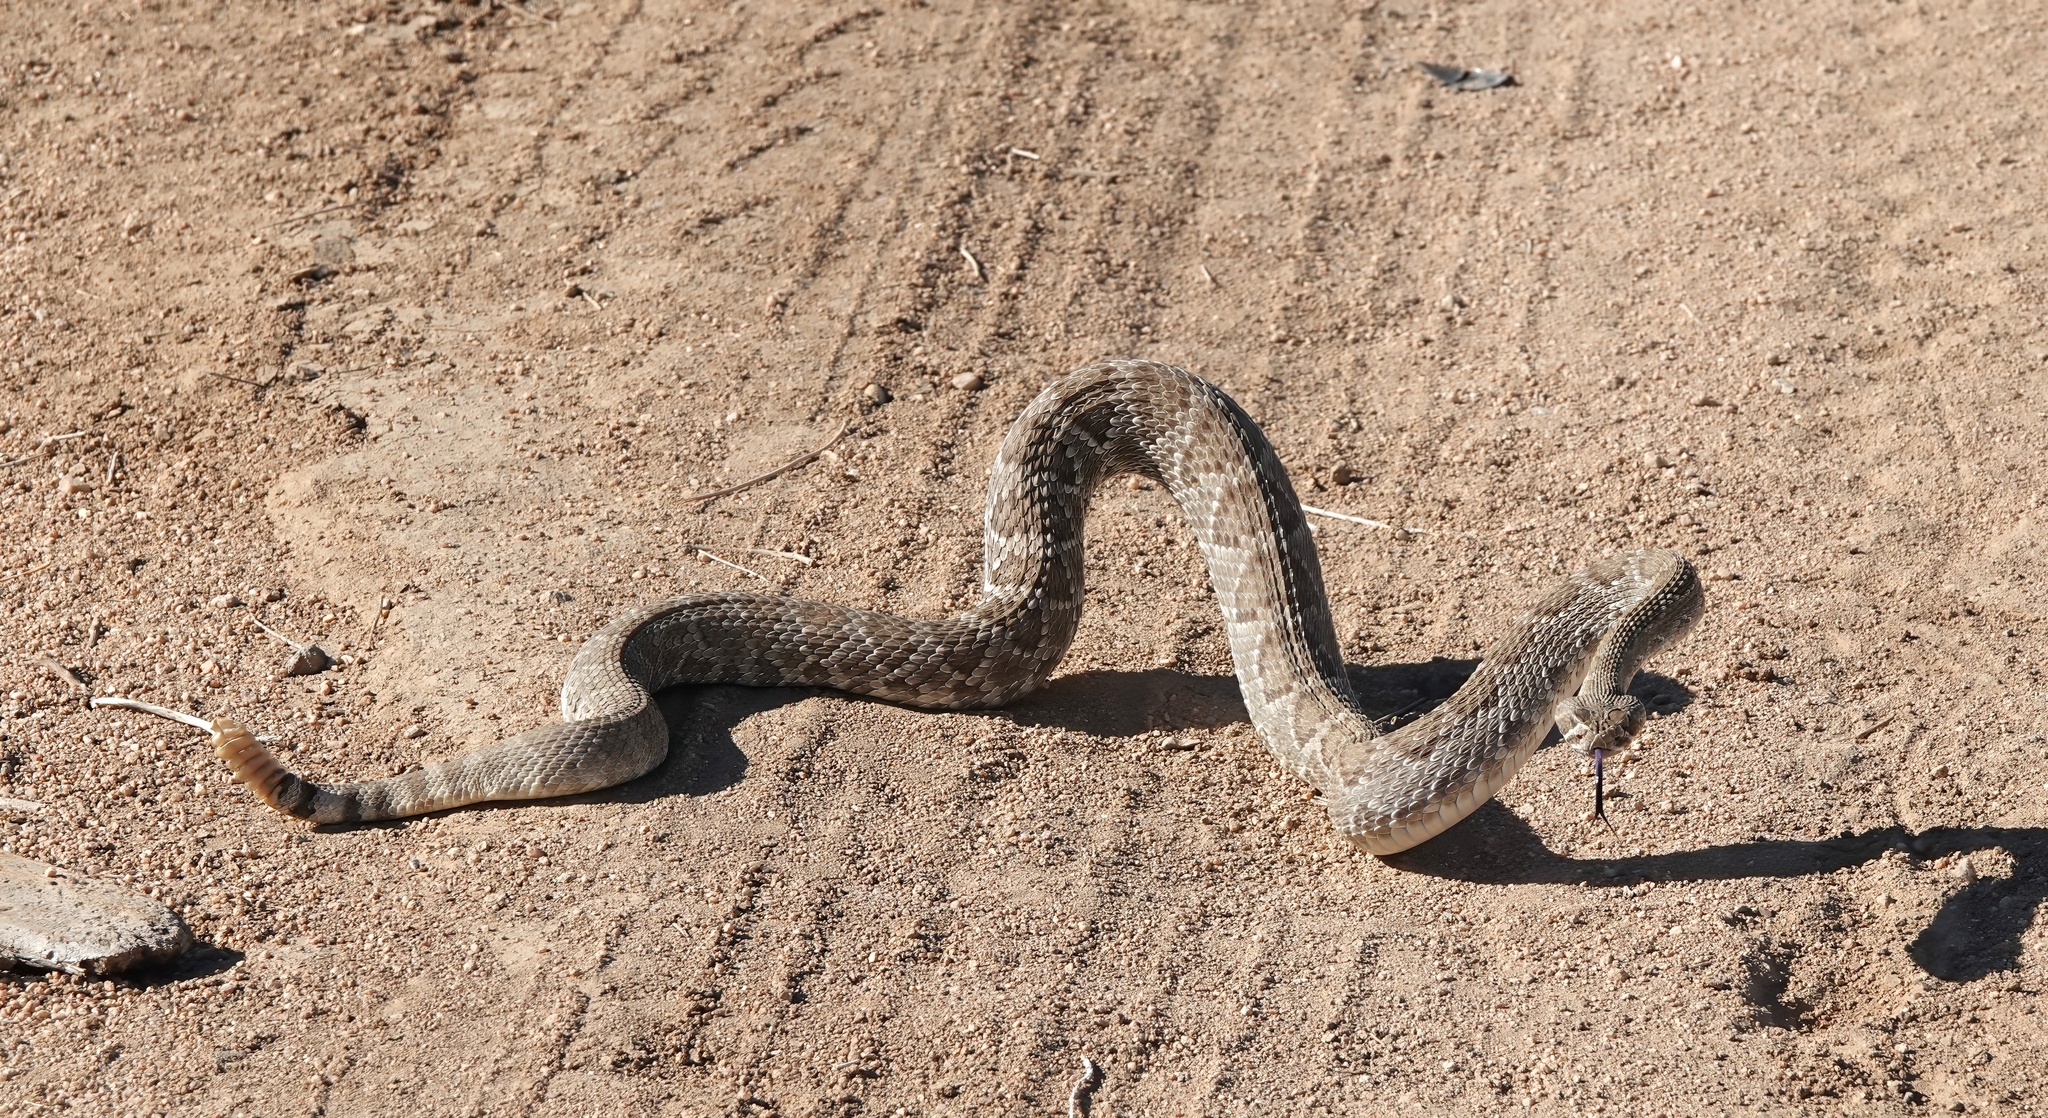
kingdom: Animalia
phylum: Chordata
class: Squamata
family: Viperidae
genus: Crotalus
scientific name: Crotalus scutulatus
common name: Scutulatus
